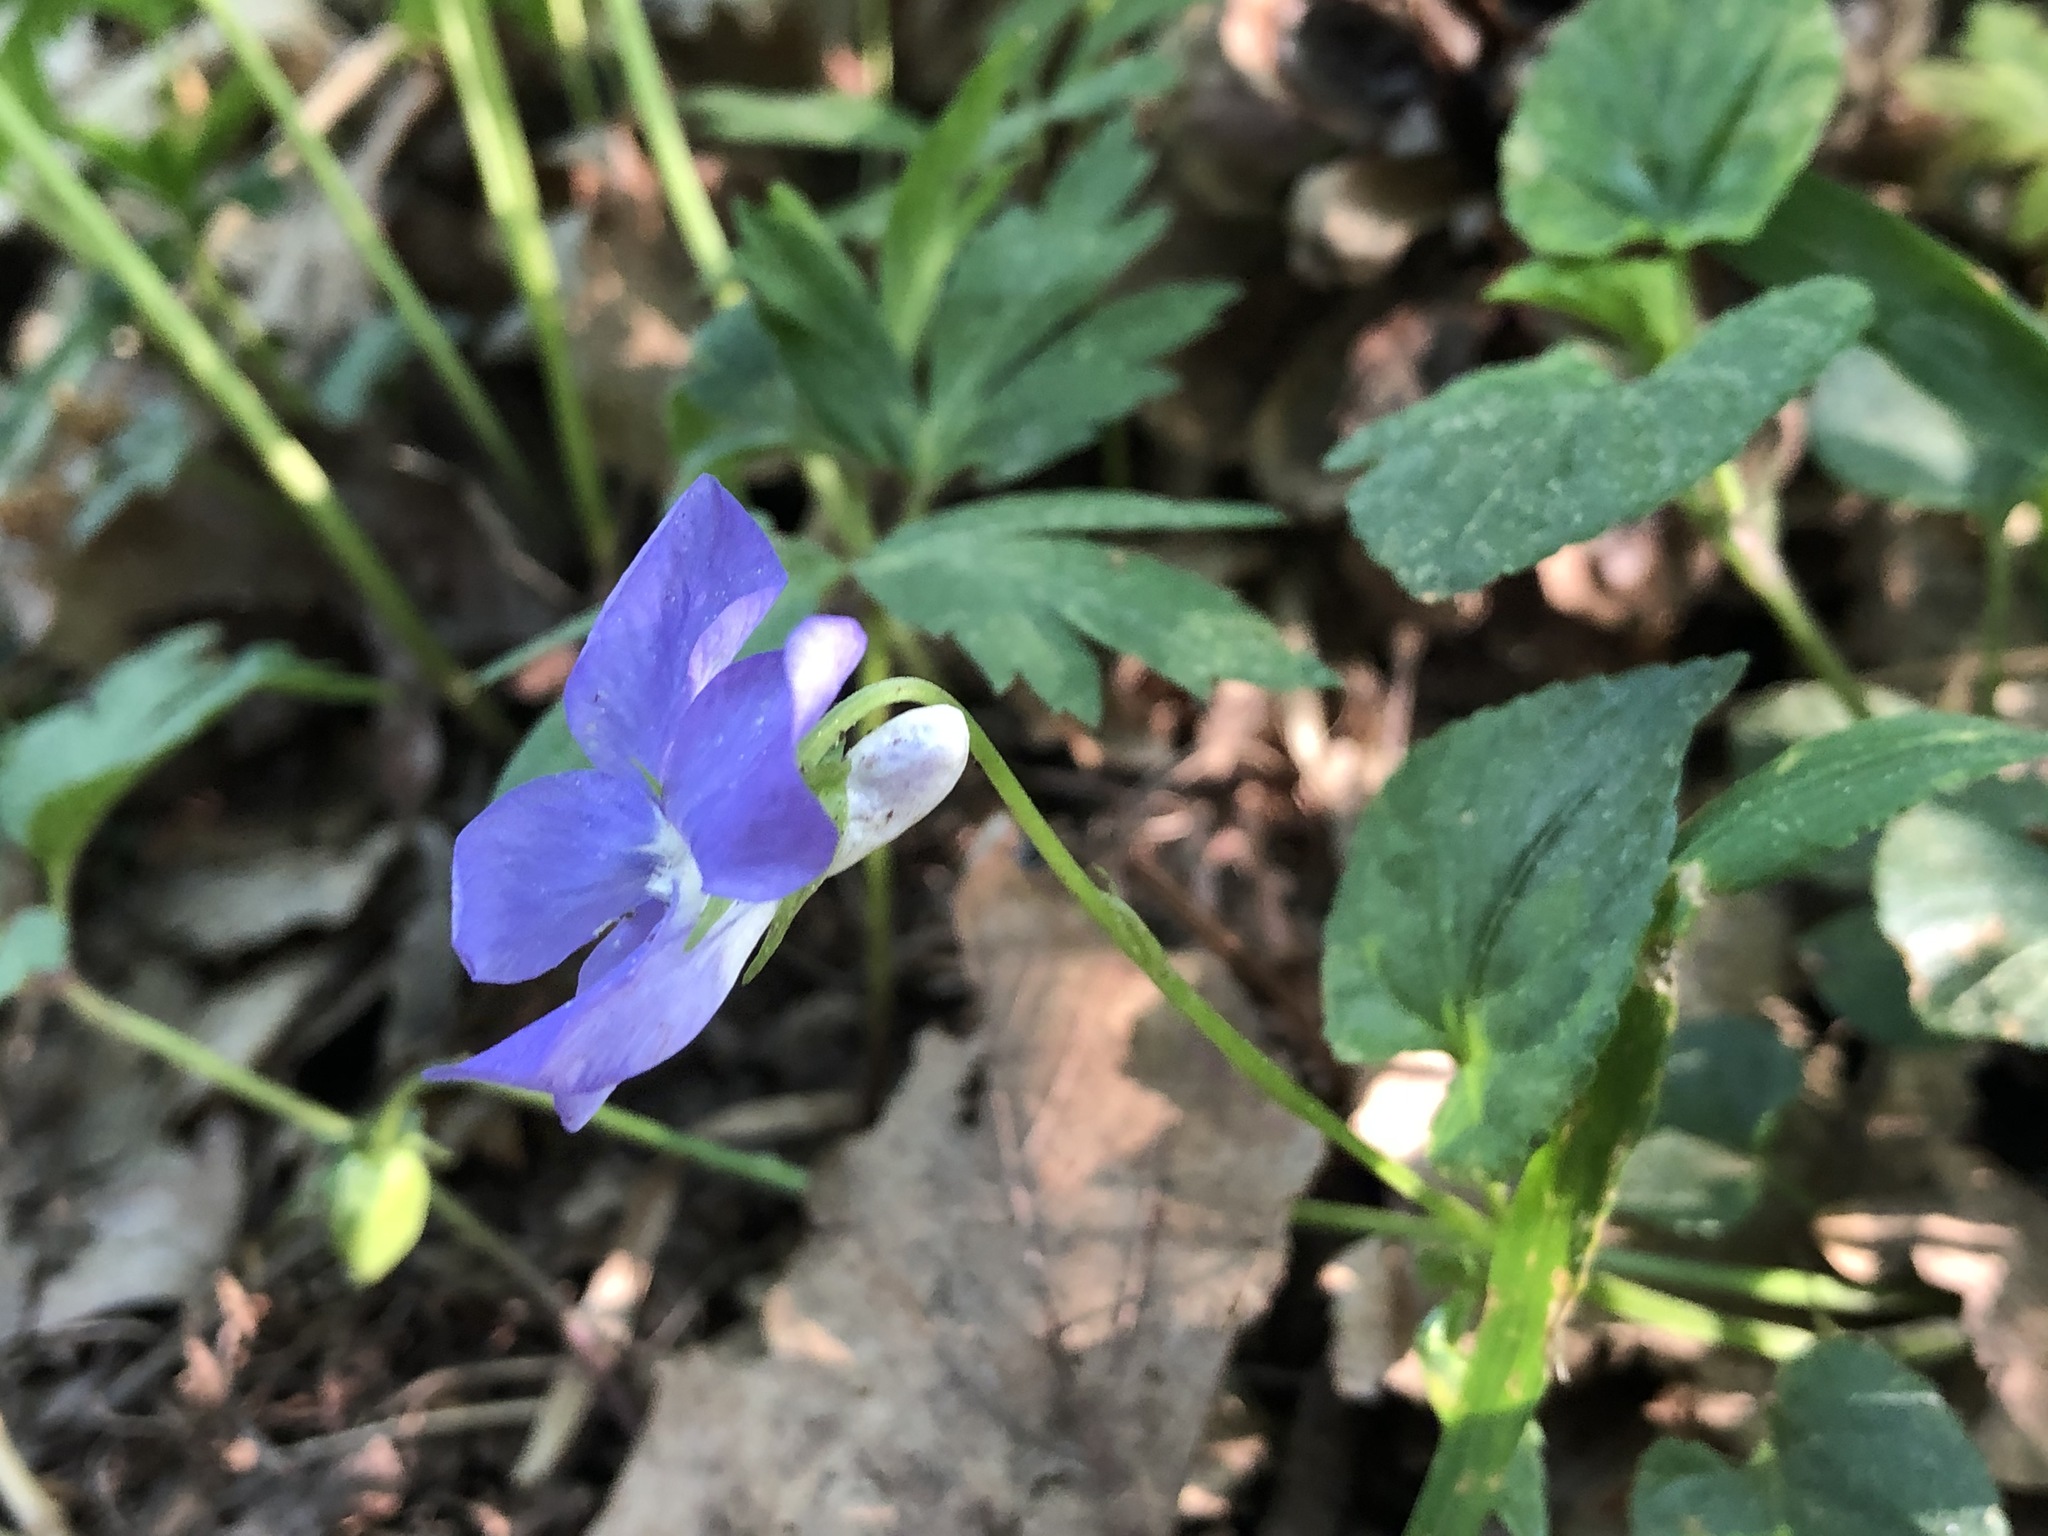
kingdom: Plantae
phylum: Tracheophyta
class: Magnoliopsida
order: Malpighiales
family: Violaceae
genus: Viola
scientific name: Viola riviniana
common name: Common dog-violet
